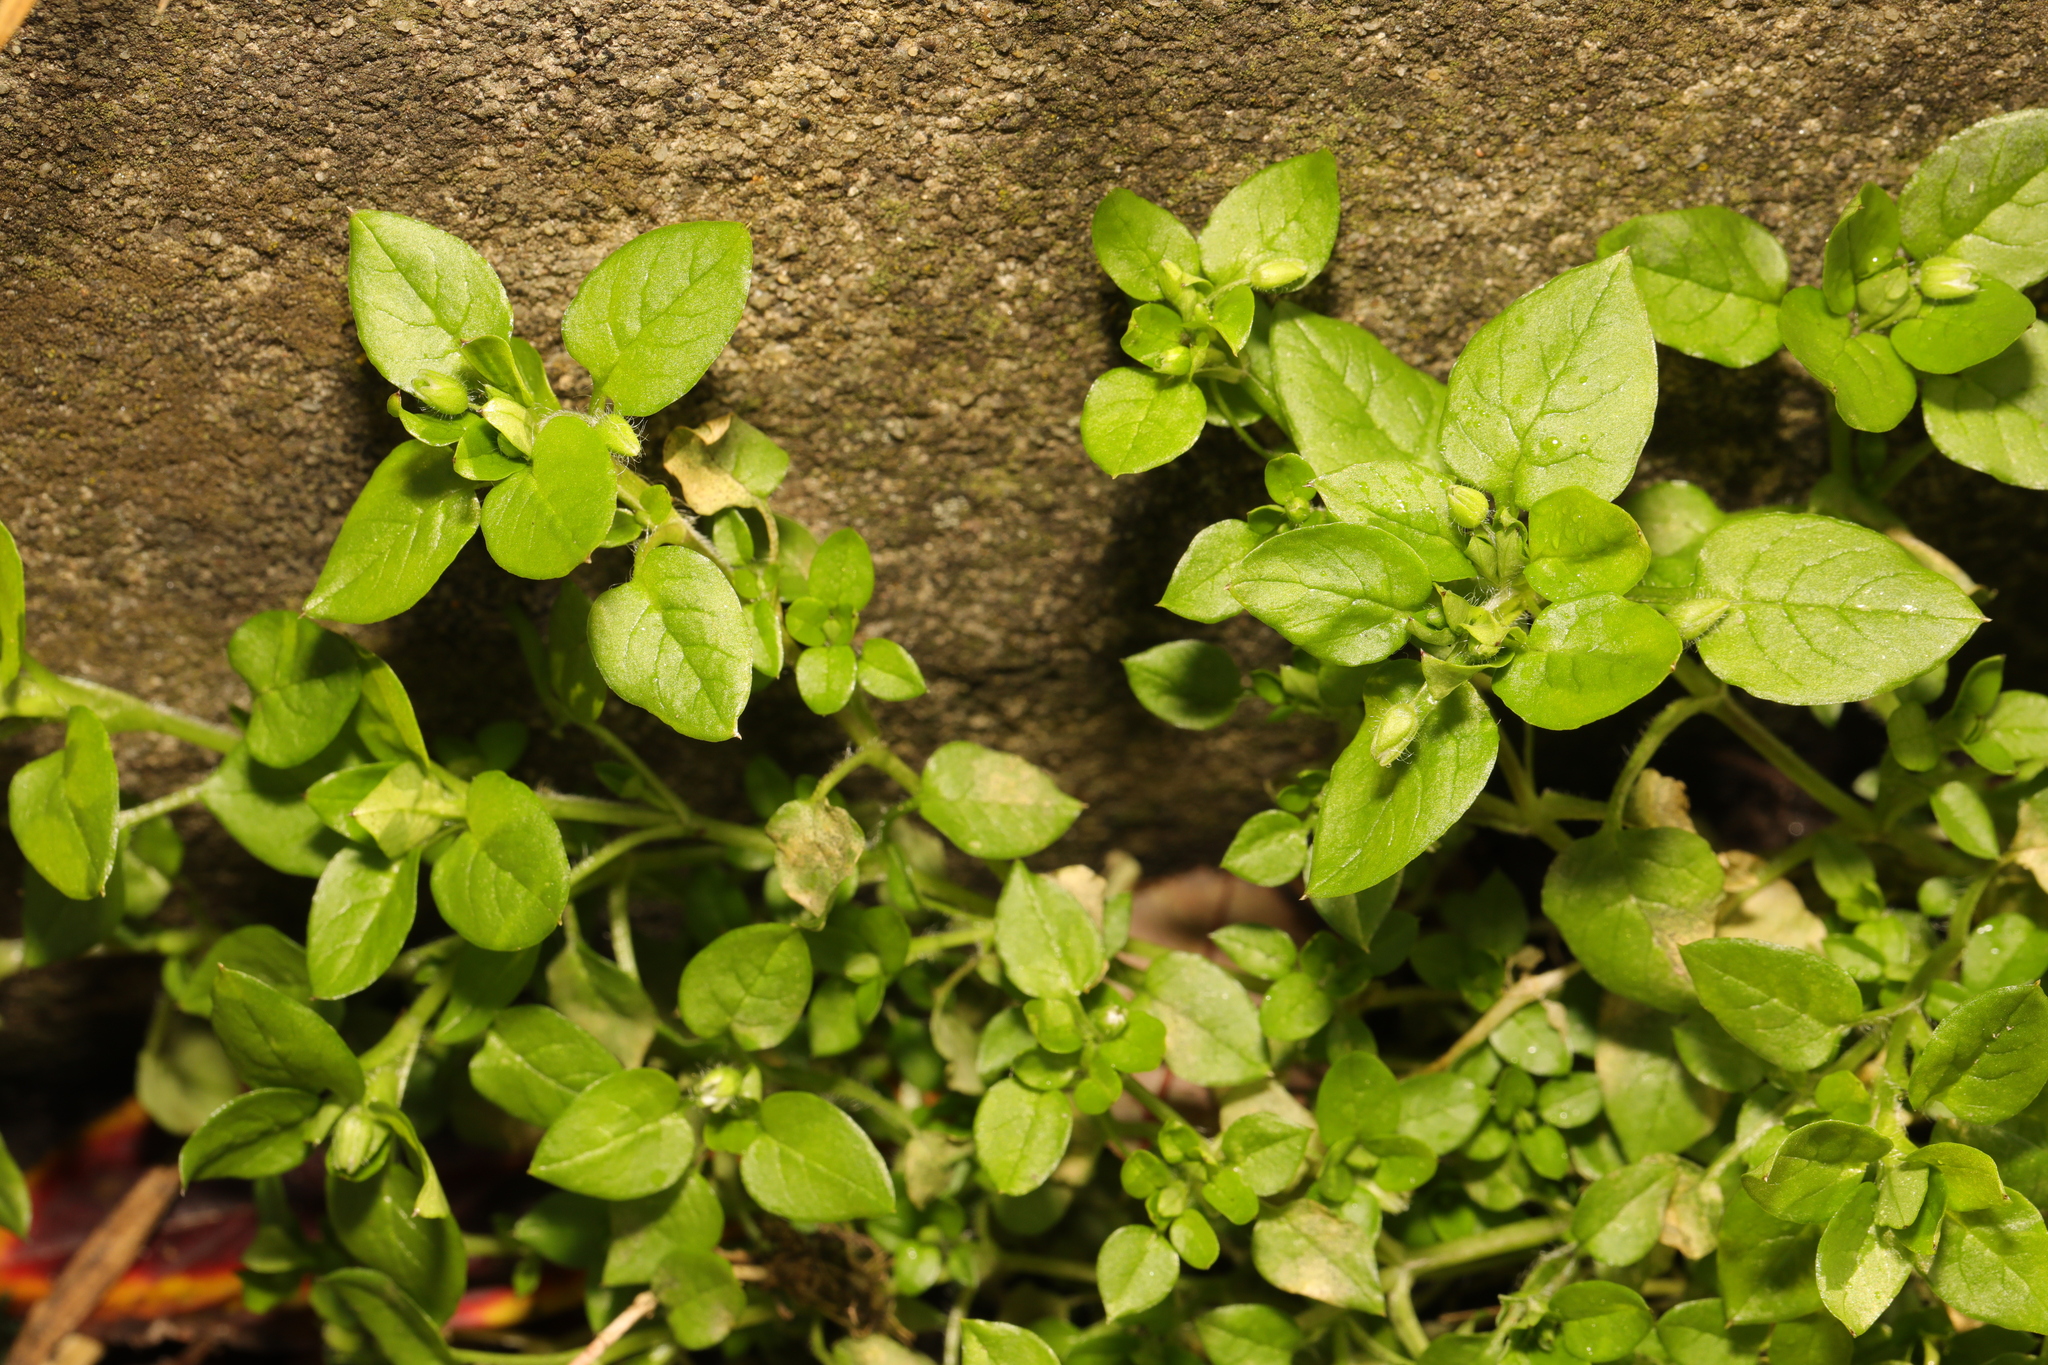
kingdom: Plantae
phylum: Tracheophyta
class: Magnoliopsida
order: Caryophyllales
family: Caryophyllaceae
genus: Stellaria
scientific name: Stellaria media
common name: Common chickweed
